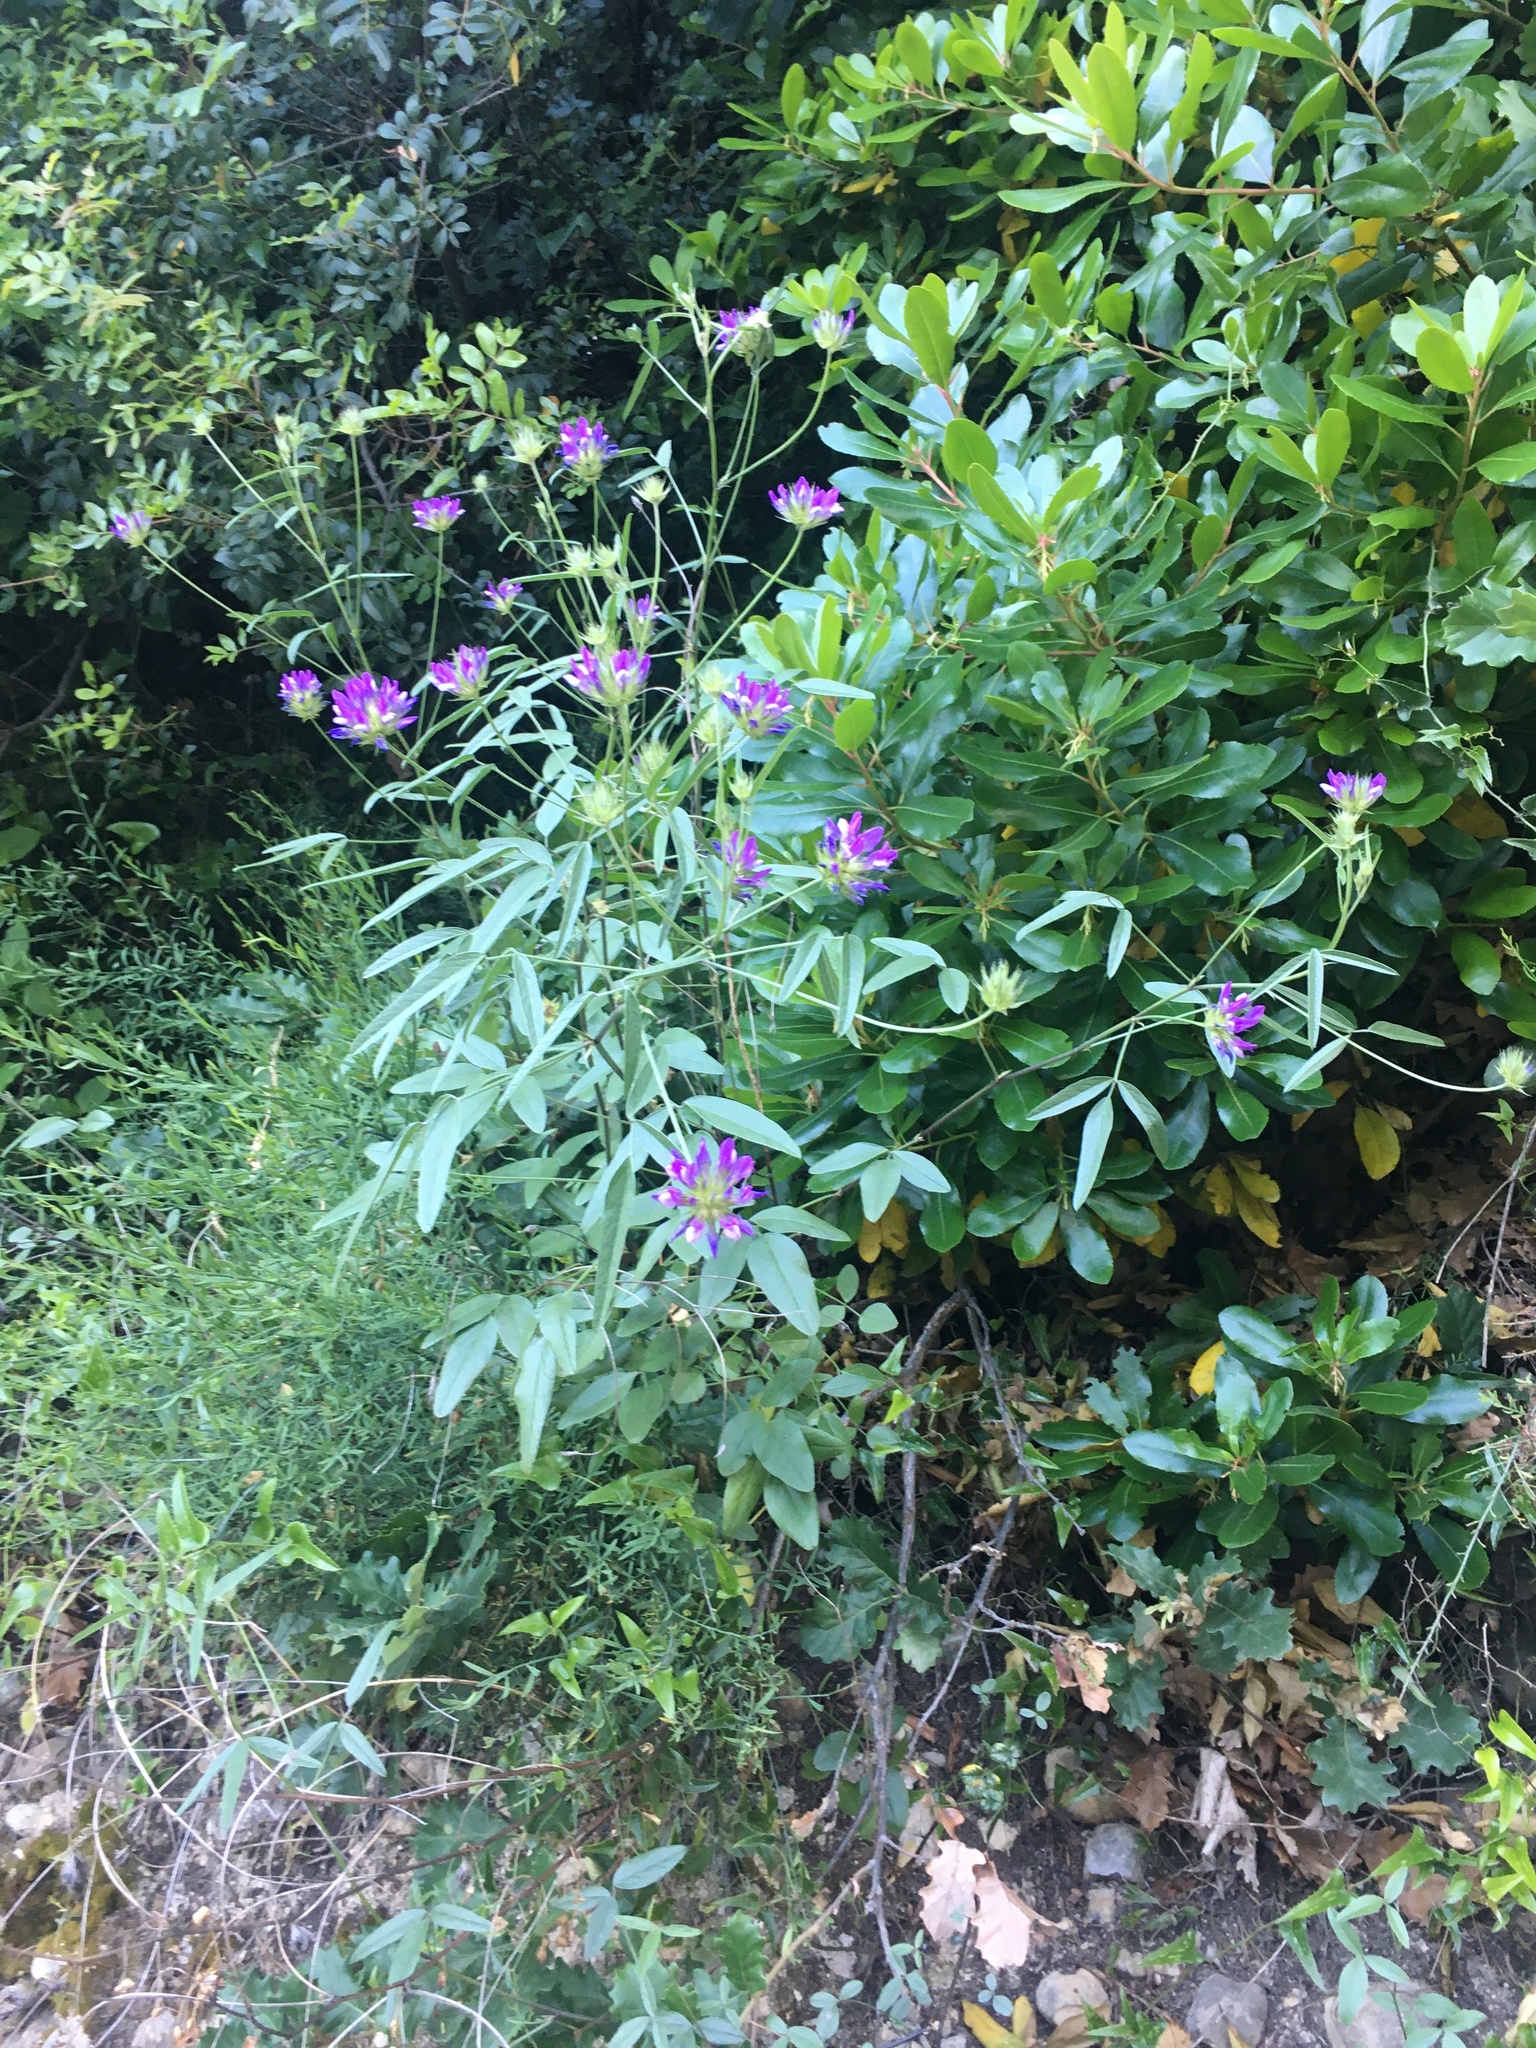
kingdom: Plantae
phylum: Tracheophyta
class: Magnoliopsida
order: Fabales
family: Fabaceae
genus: Bituminaria
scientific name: Bituminaria bituminosa
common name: Arabian pea
